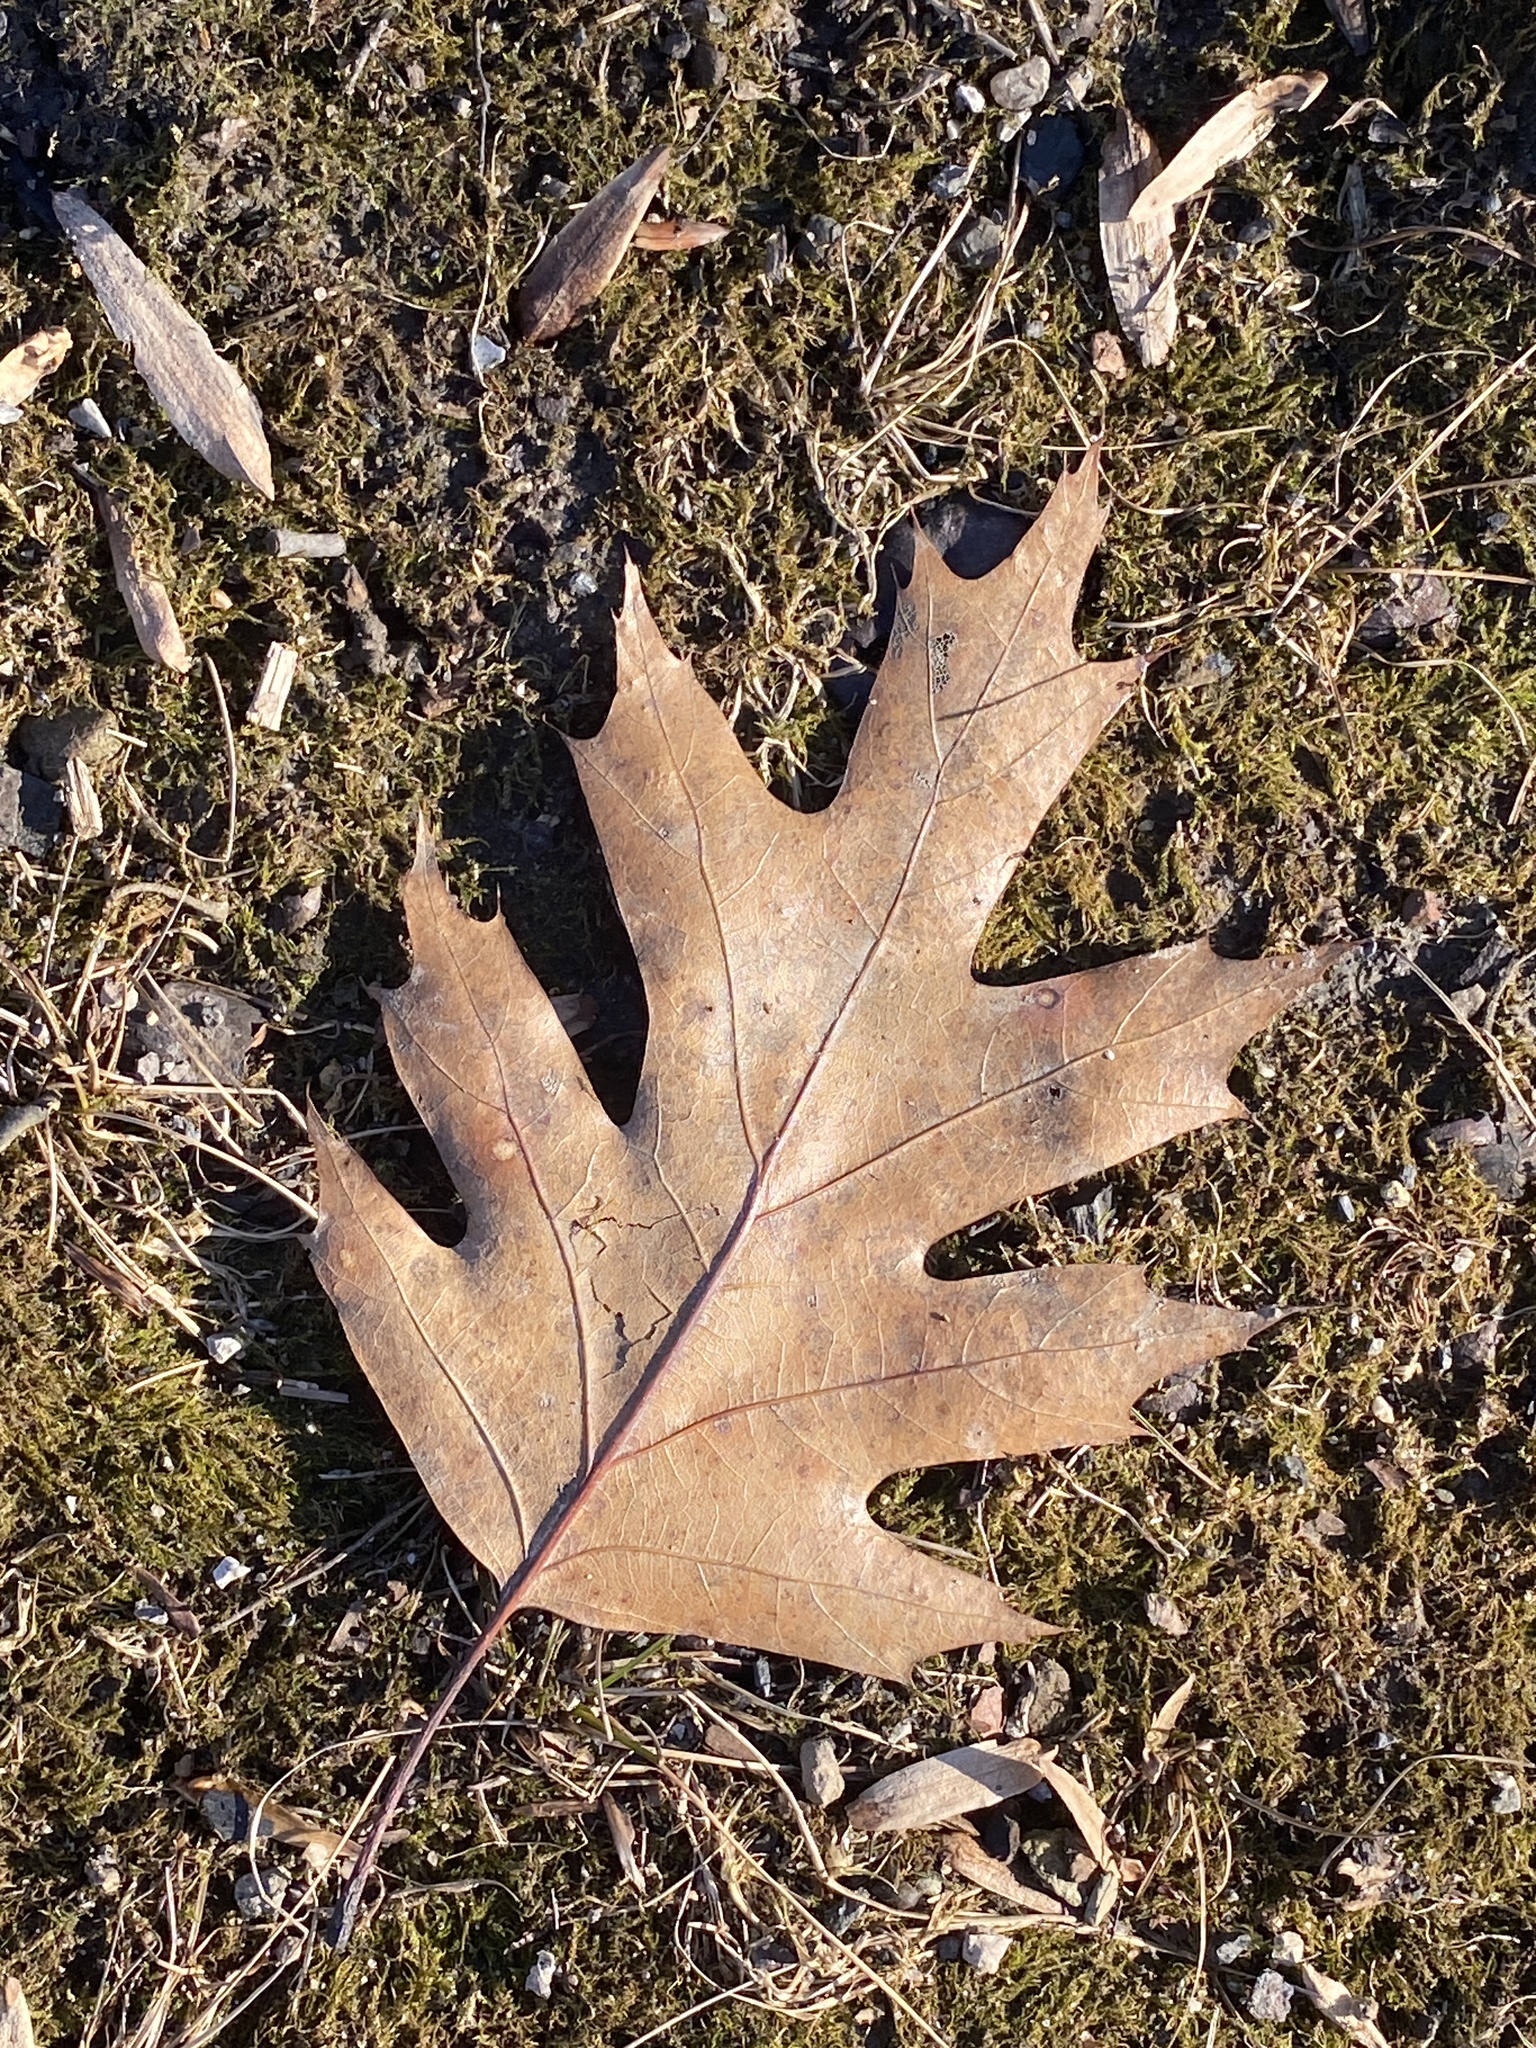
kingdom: Plantae
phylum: Tracheophyta
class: Magnoliopsida
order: Fagales
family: Fagaceae
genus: Quercus
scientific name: Quercus rubra
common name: Red oak
